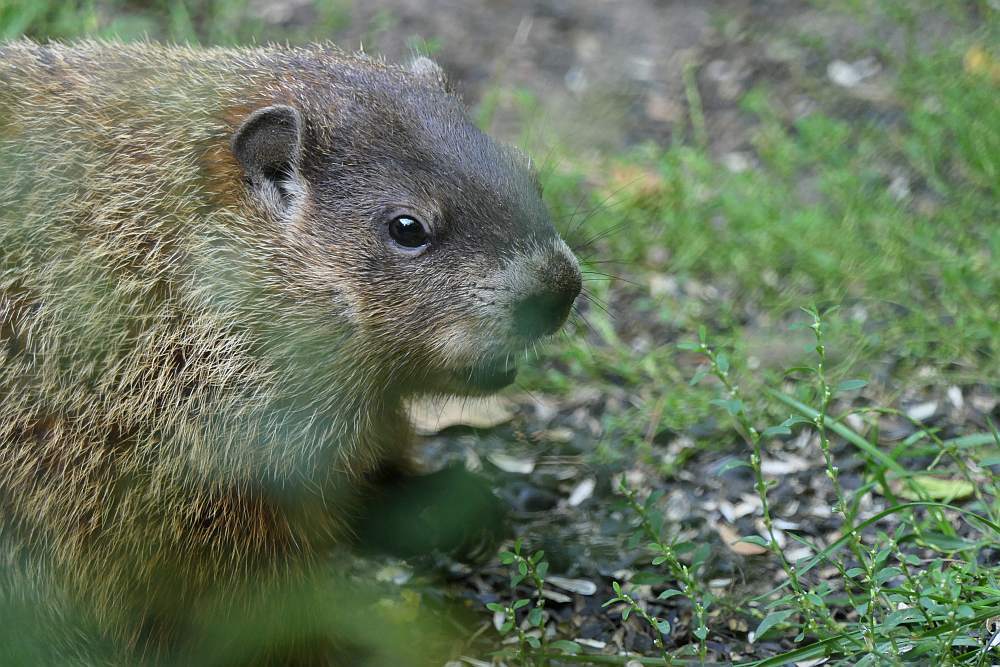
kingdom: Animalia
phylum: Chordata
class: Mammalia
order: Rodentia
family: Sciuridae
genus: Marmota
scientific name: Marmota monax
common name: Groundhog
